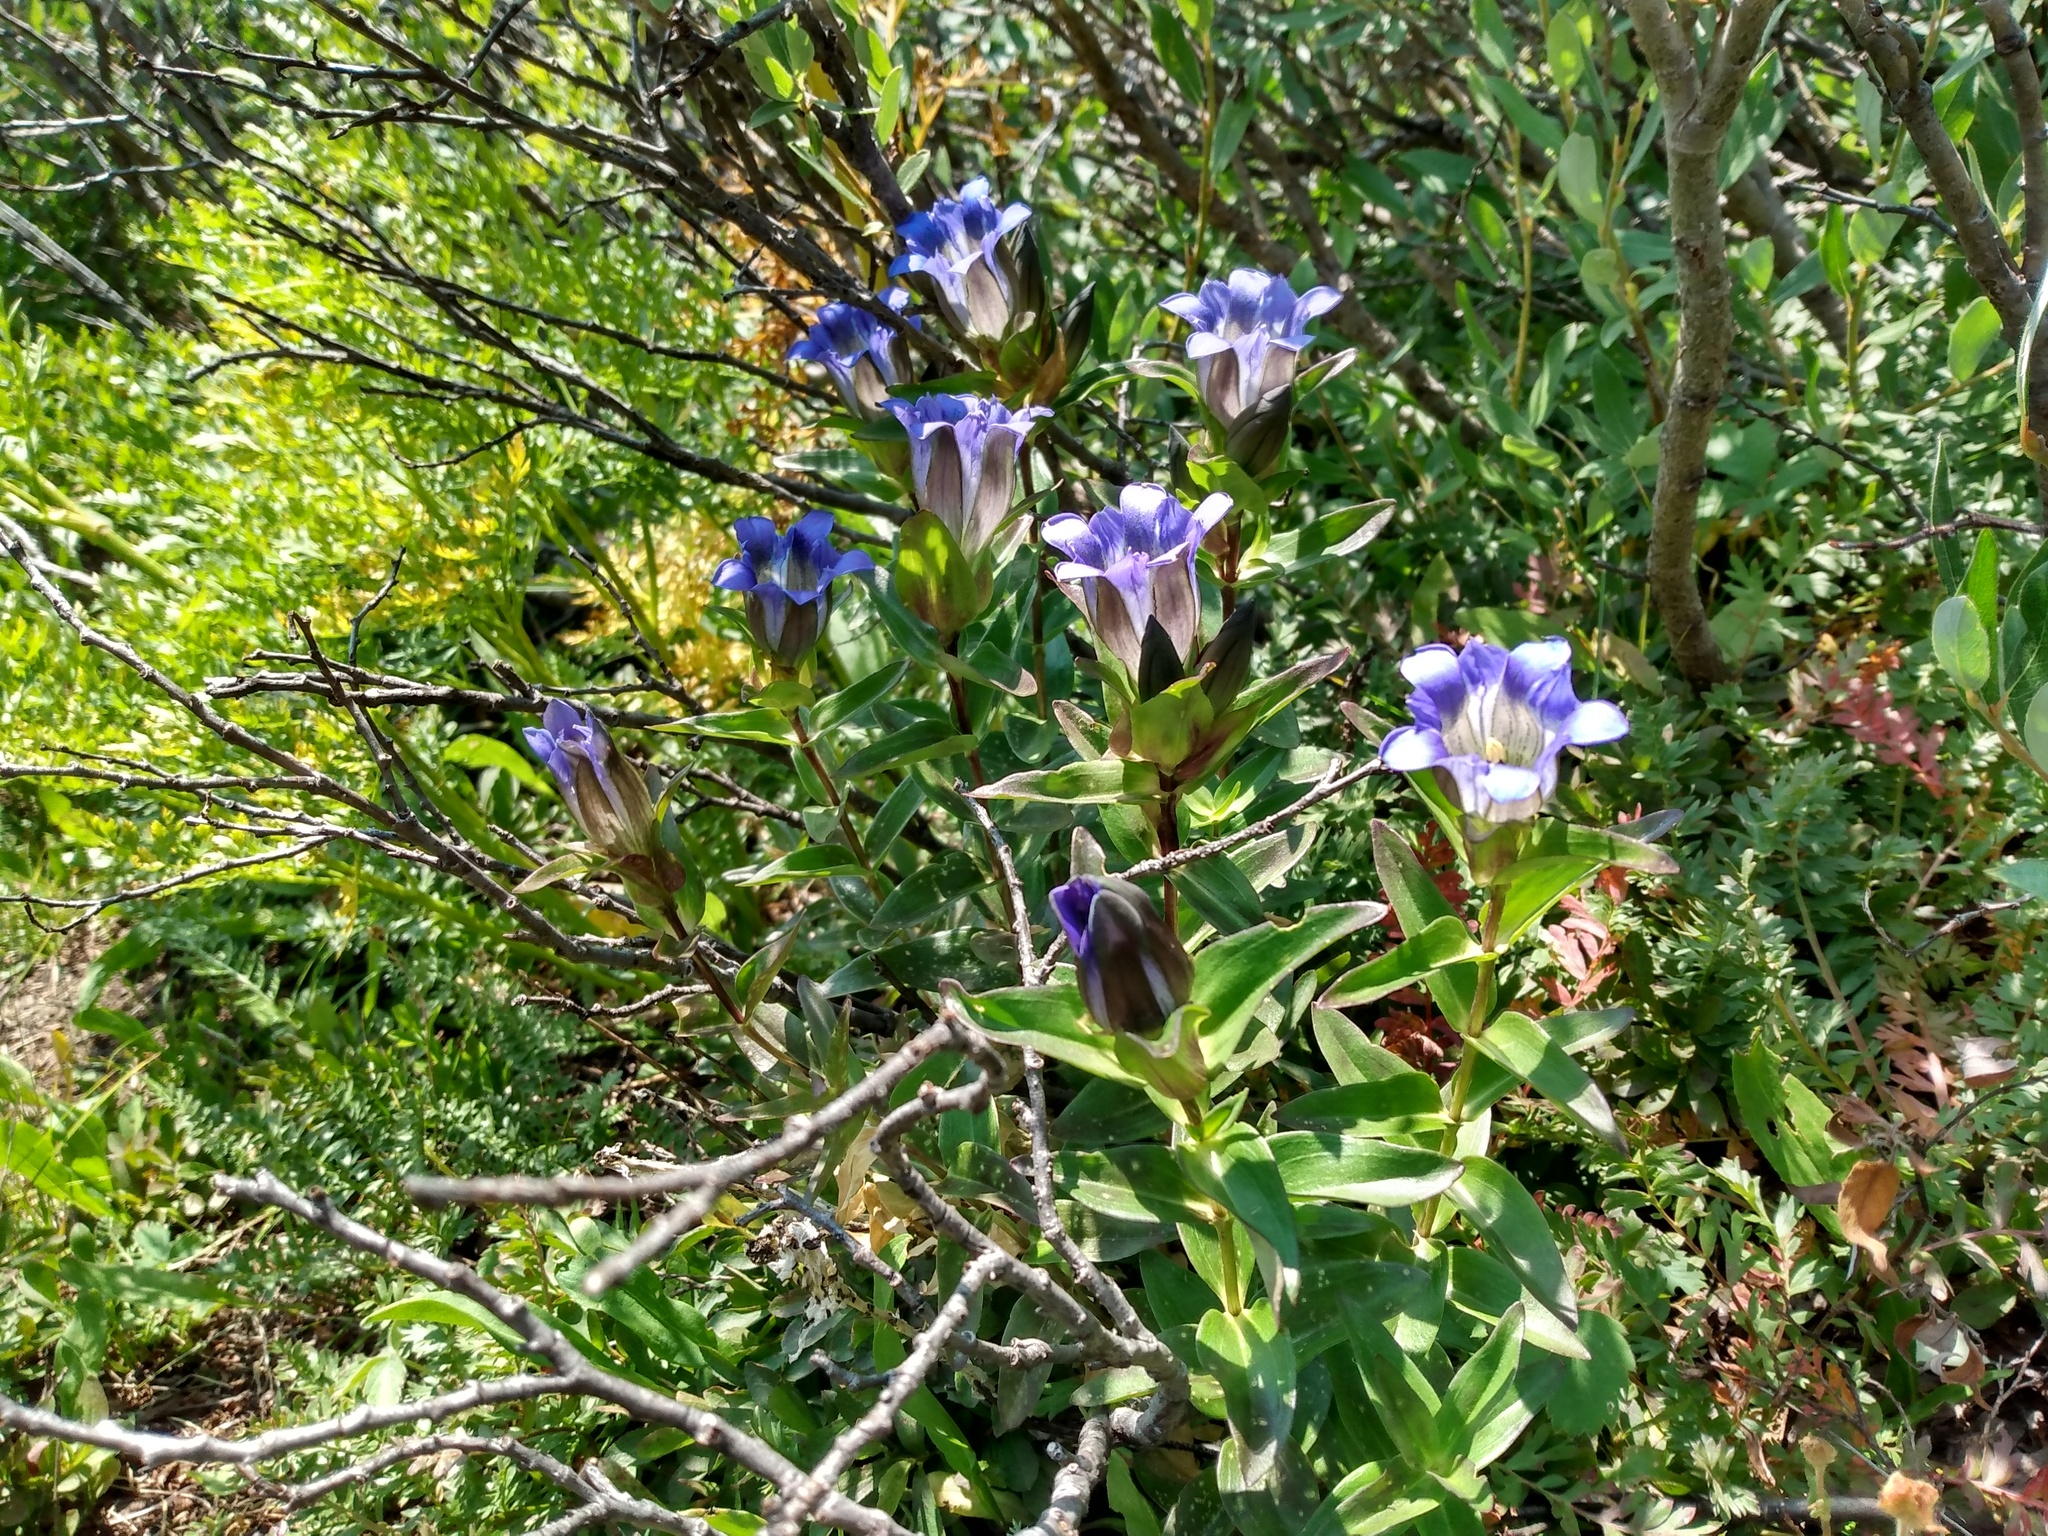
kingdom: Plantae
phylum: Tracheophyta
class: Magnoliopsida
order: Gentianales
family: Gentianaceae
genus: Gentiana
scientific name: Gentiana parryi
